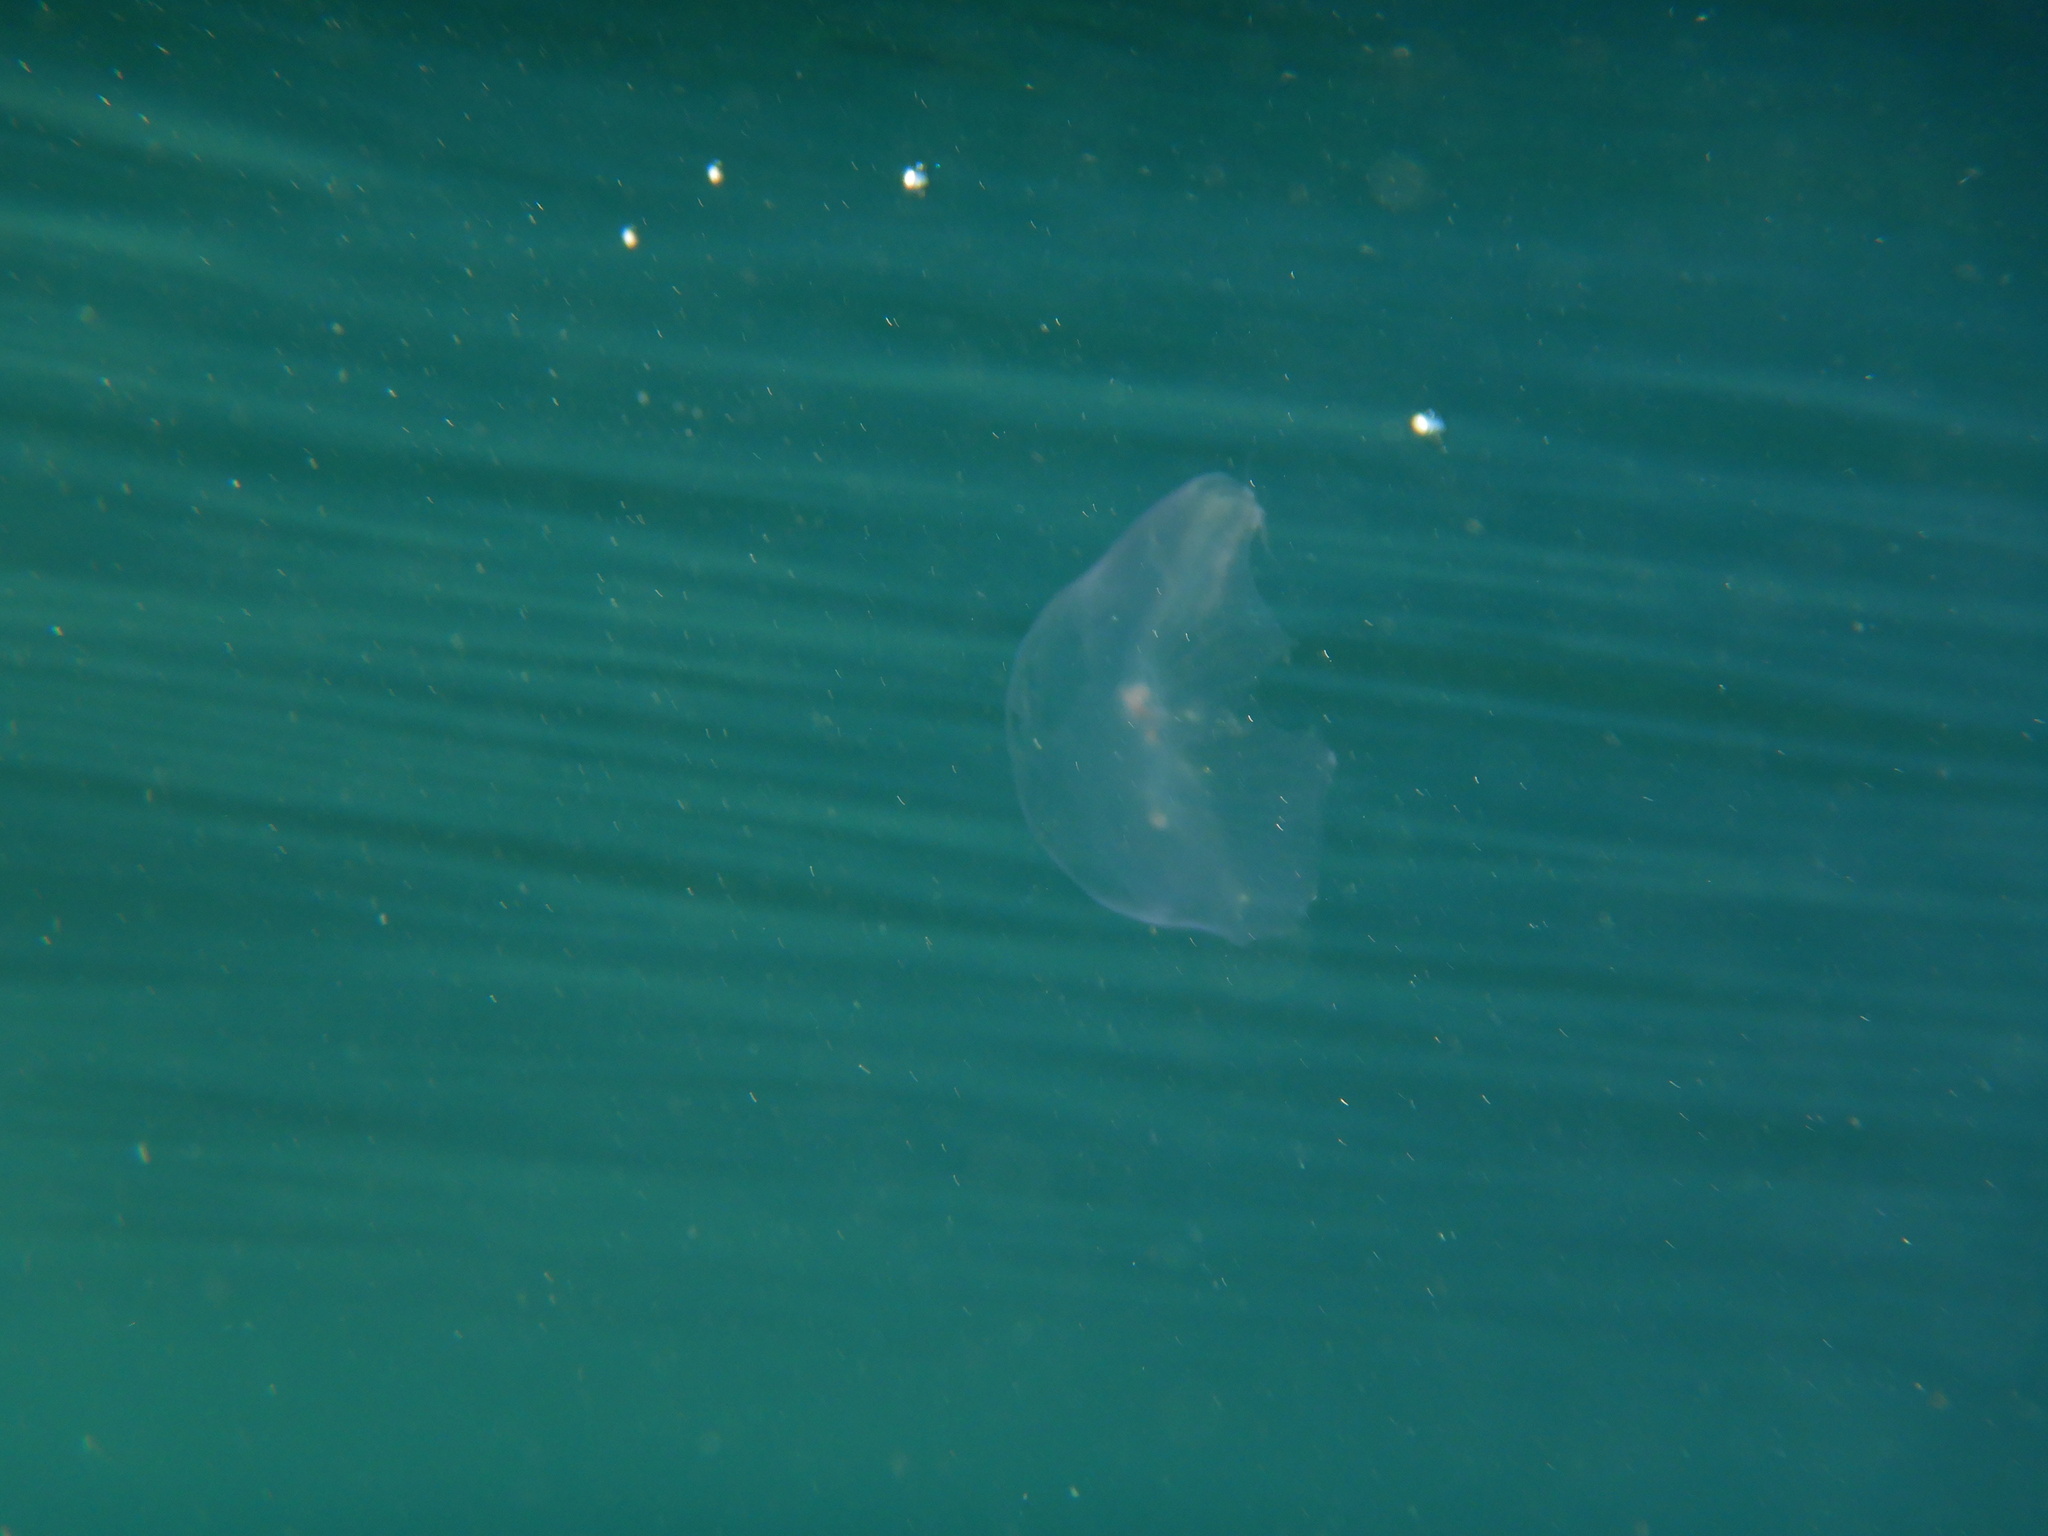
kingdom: Animalia
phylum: Cnidaria
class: Hydrozoa
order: Leptothecata
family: Aequoreidae
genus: Aequorea
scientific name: Aequorea forskalea
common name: Many-ribbed jellyfish
